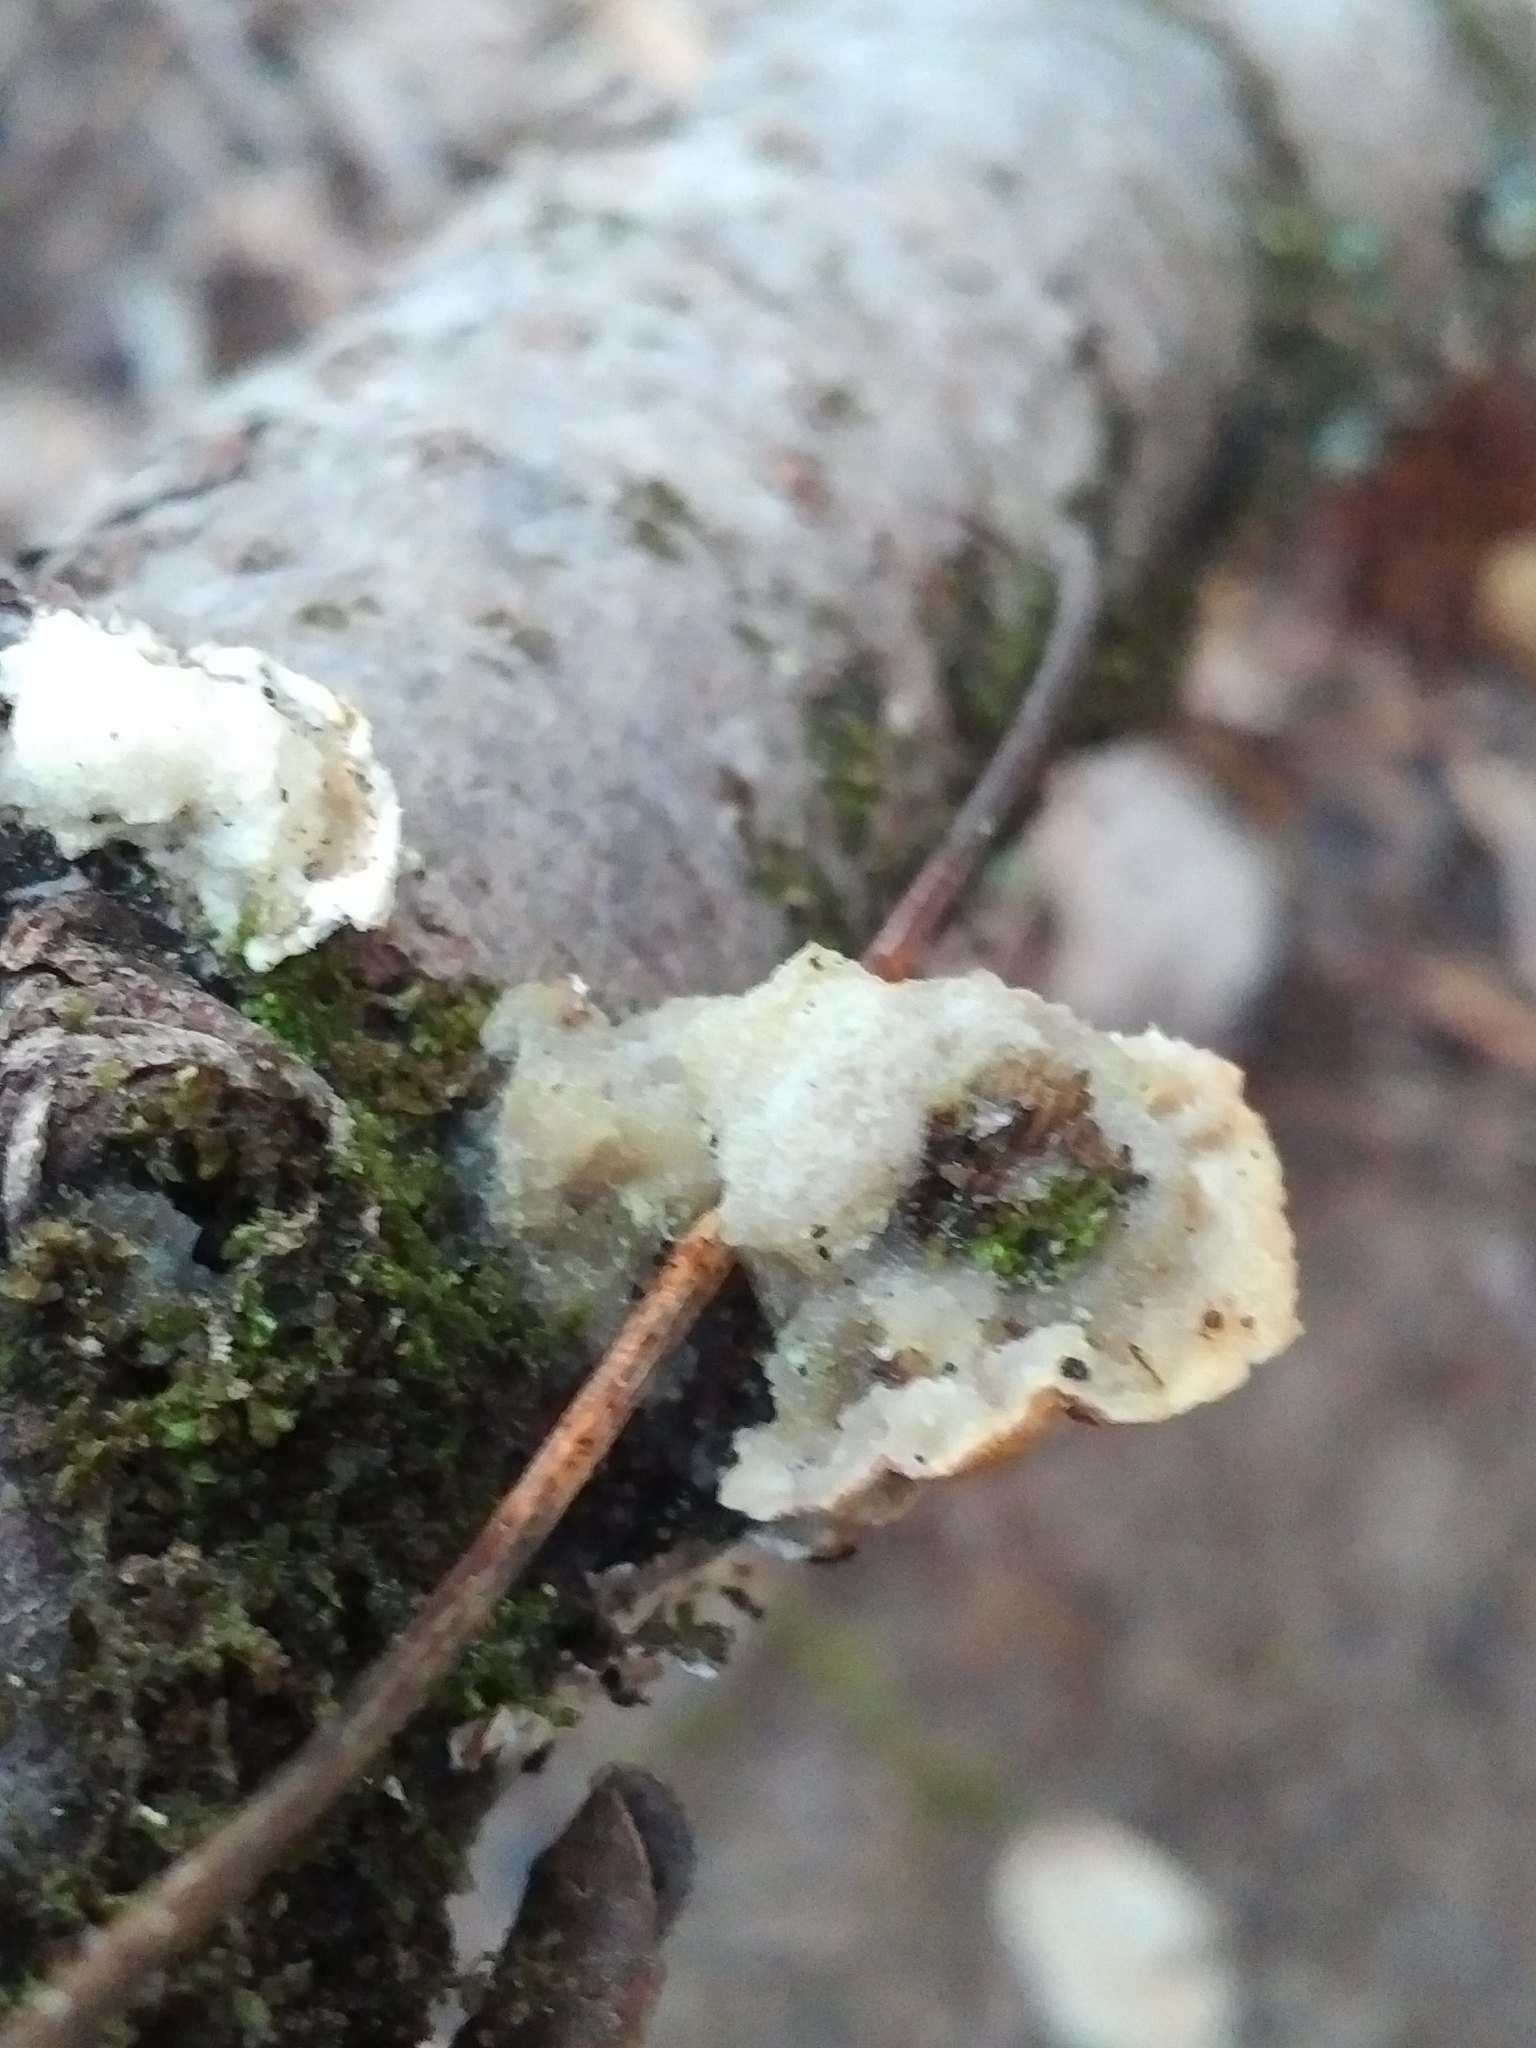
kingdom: Fungi
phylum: Basidiomycota
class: Agaricomycetes
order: Polyporales
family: Irpicaceae
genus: Vitreoporus
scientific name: Vitreoporus dichrous
